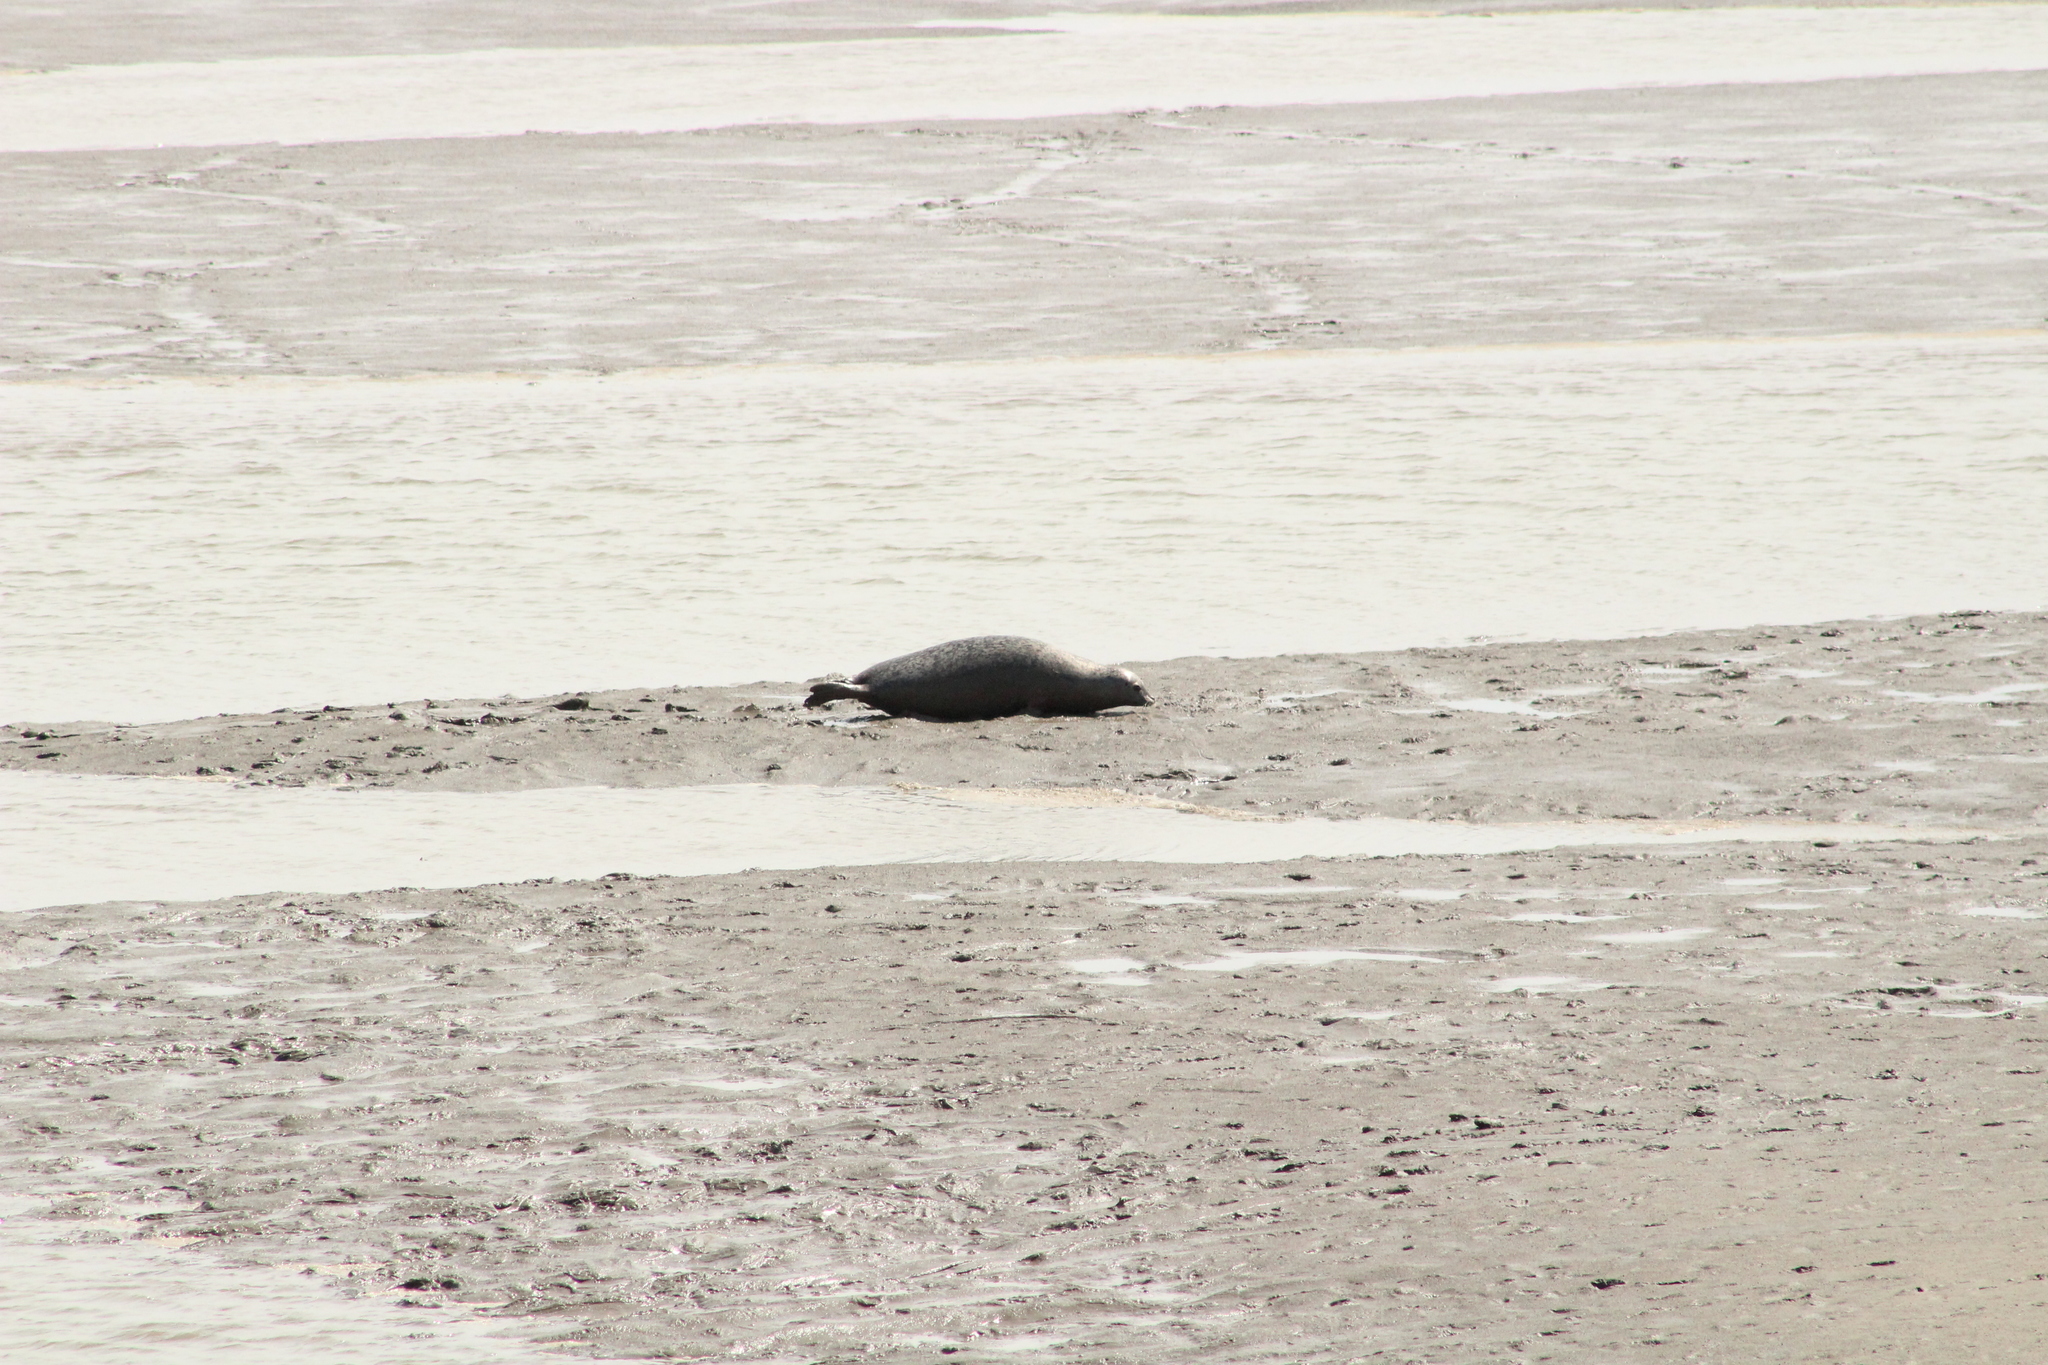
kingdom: Animalia
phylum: Chordata
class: Mammalia
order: Carnivora
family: Phocidae
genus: Phoca
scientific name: Phoca vitulina
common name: Harbor seal
